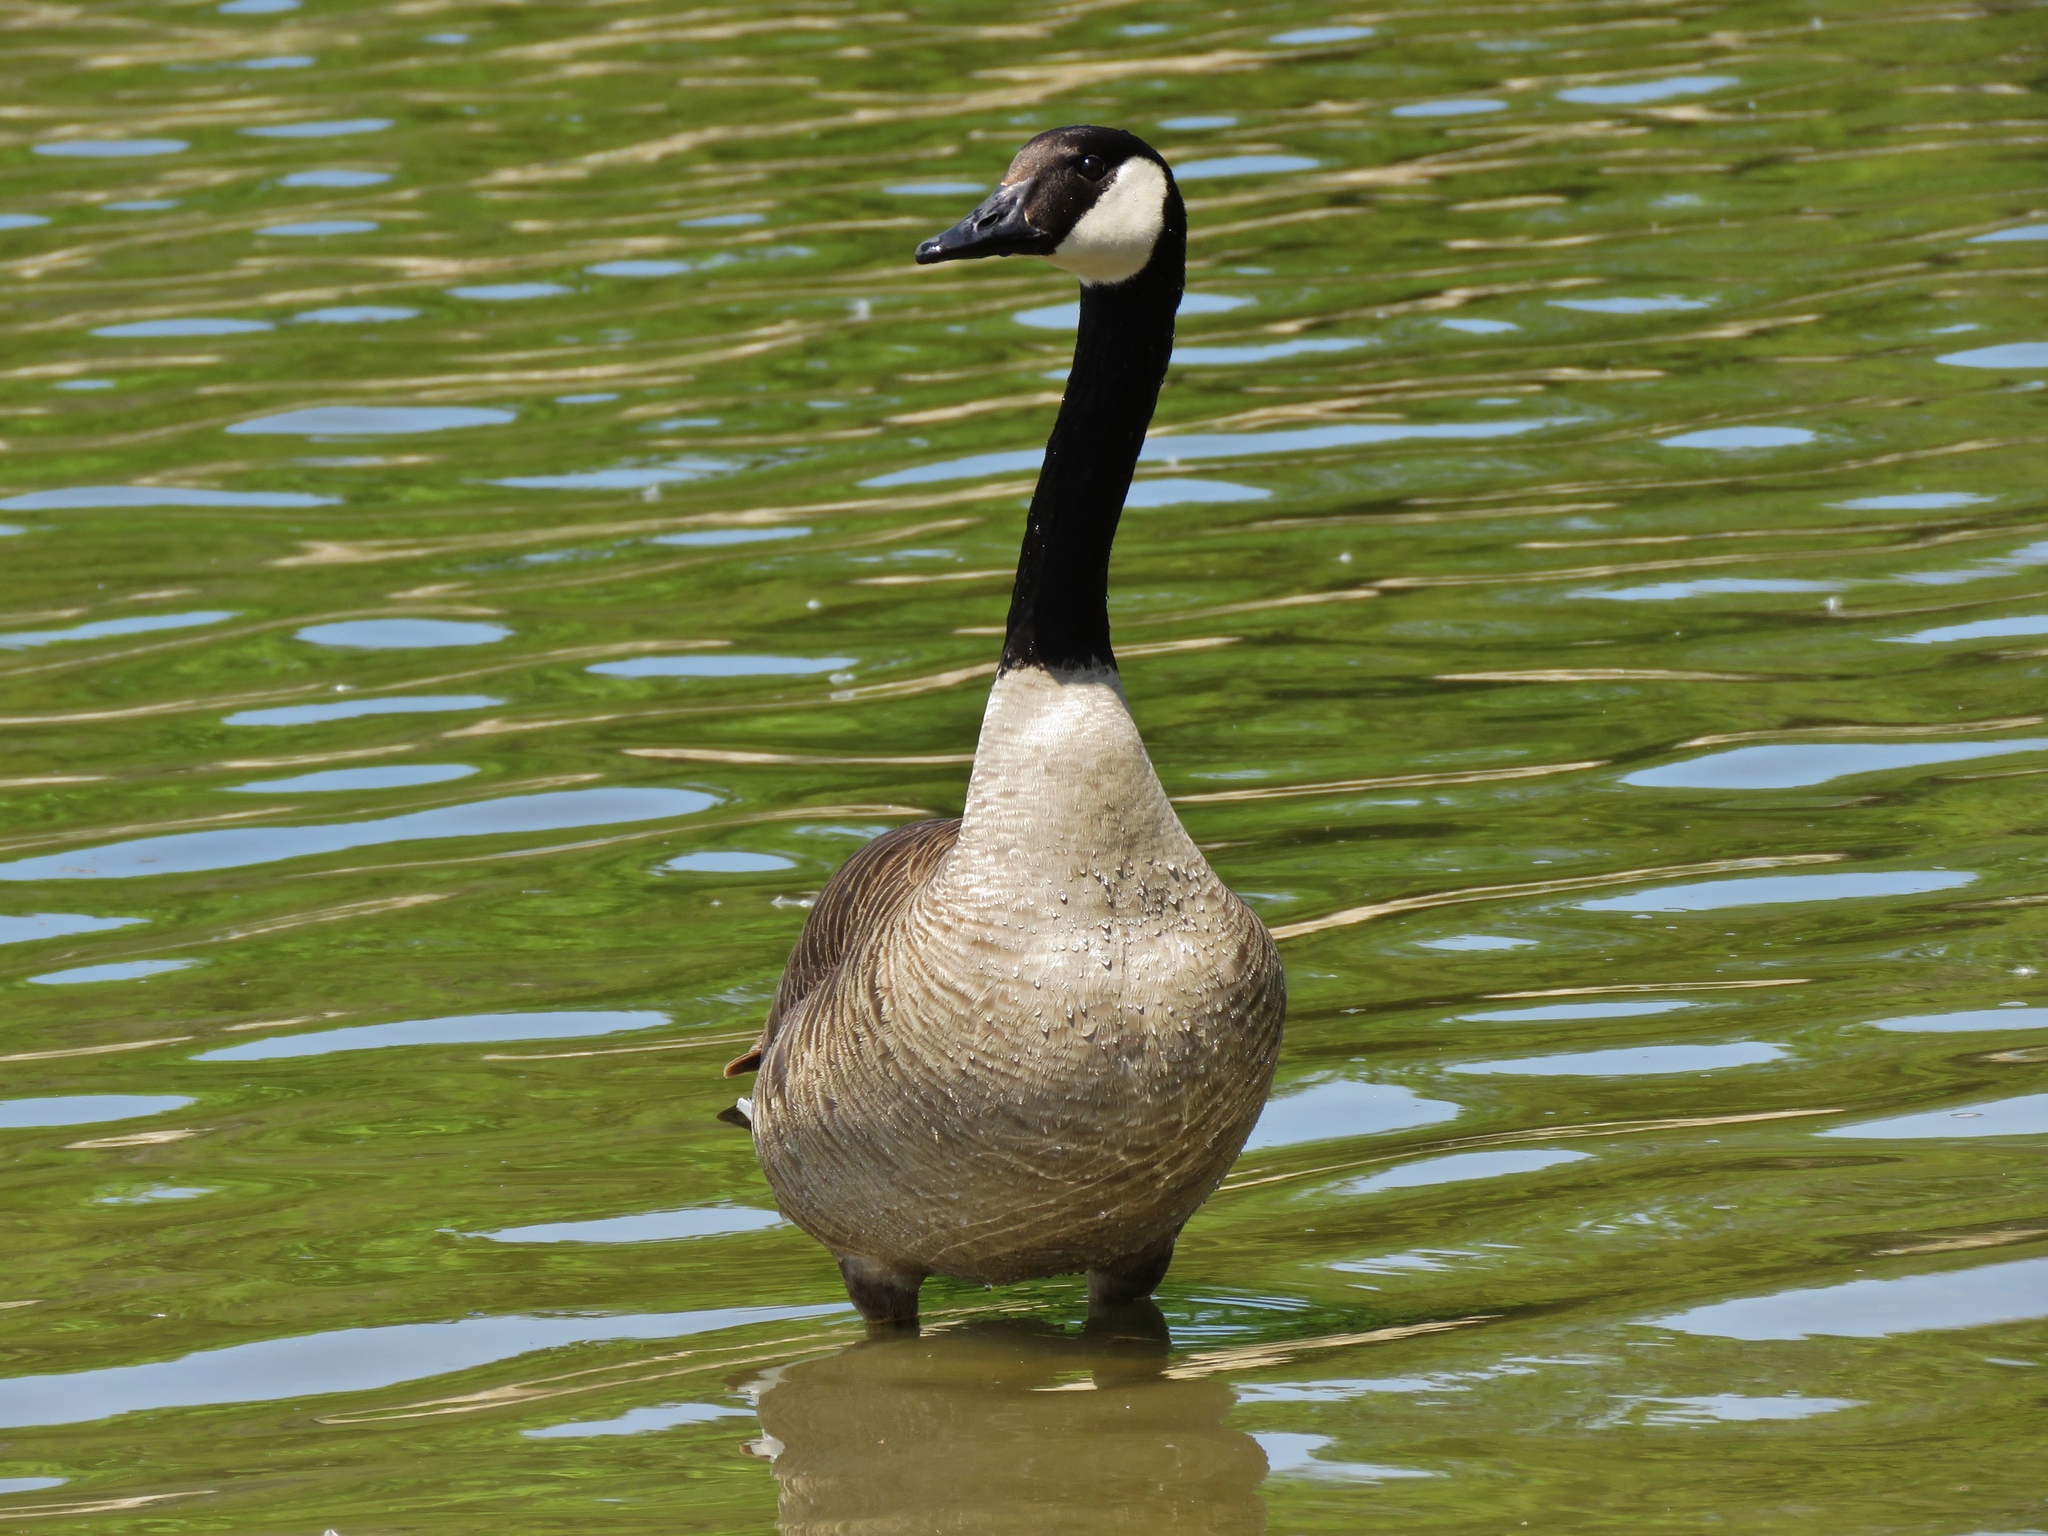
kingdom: Animalia
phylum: Chordata
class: Aves
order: Anseriformes
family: Anatidae
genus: Branta
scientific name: Branta canadensis
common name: Canada goose
